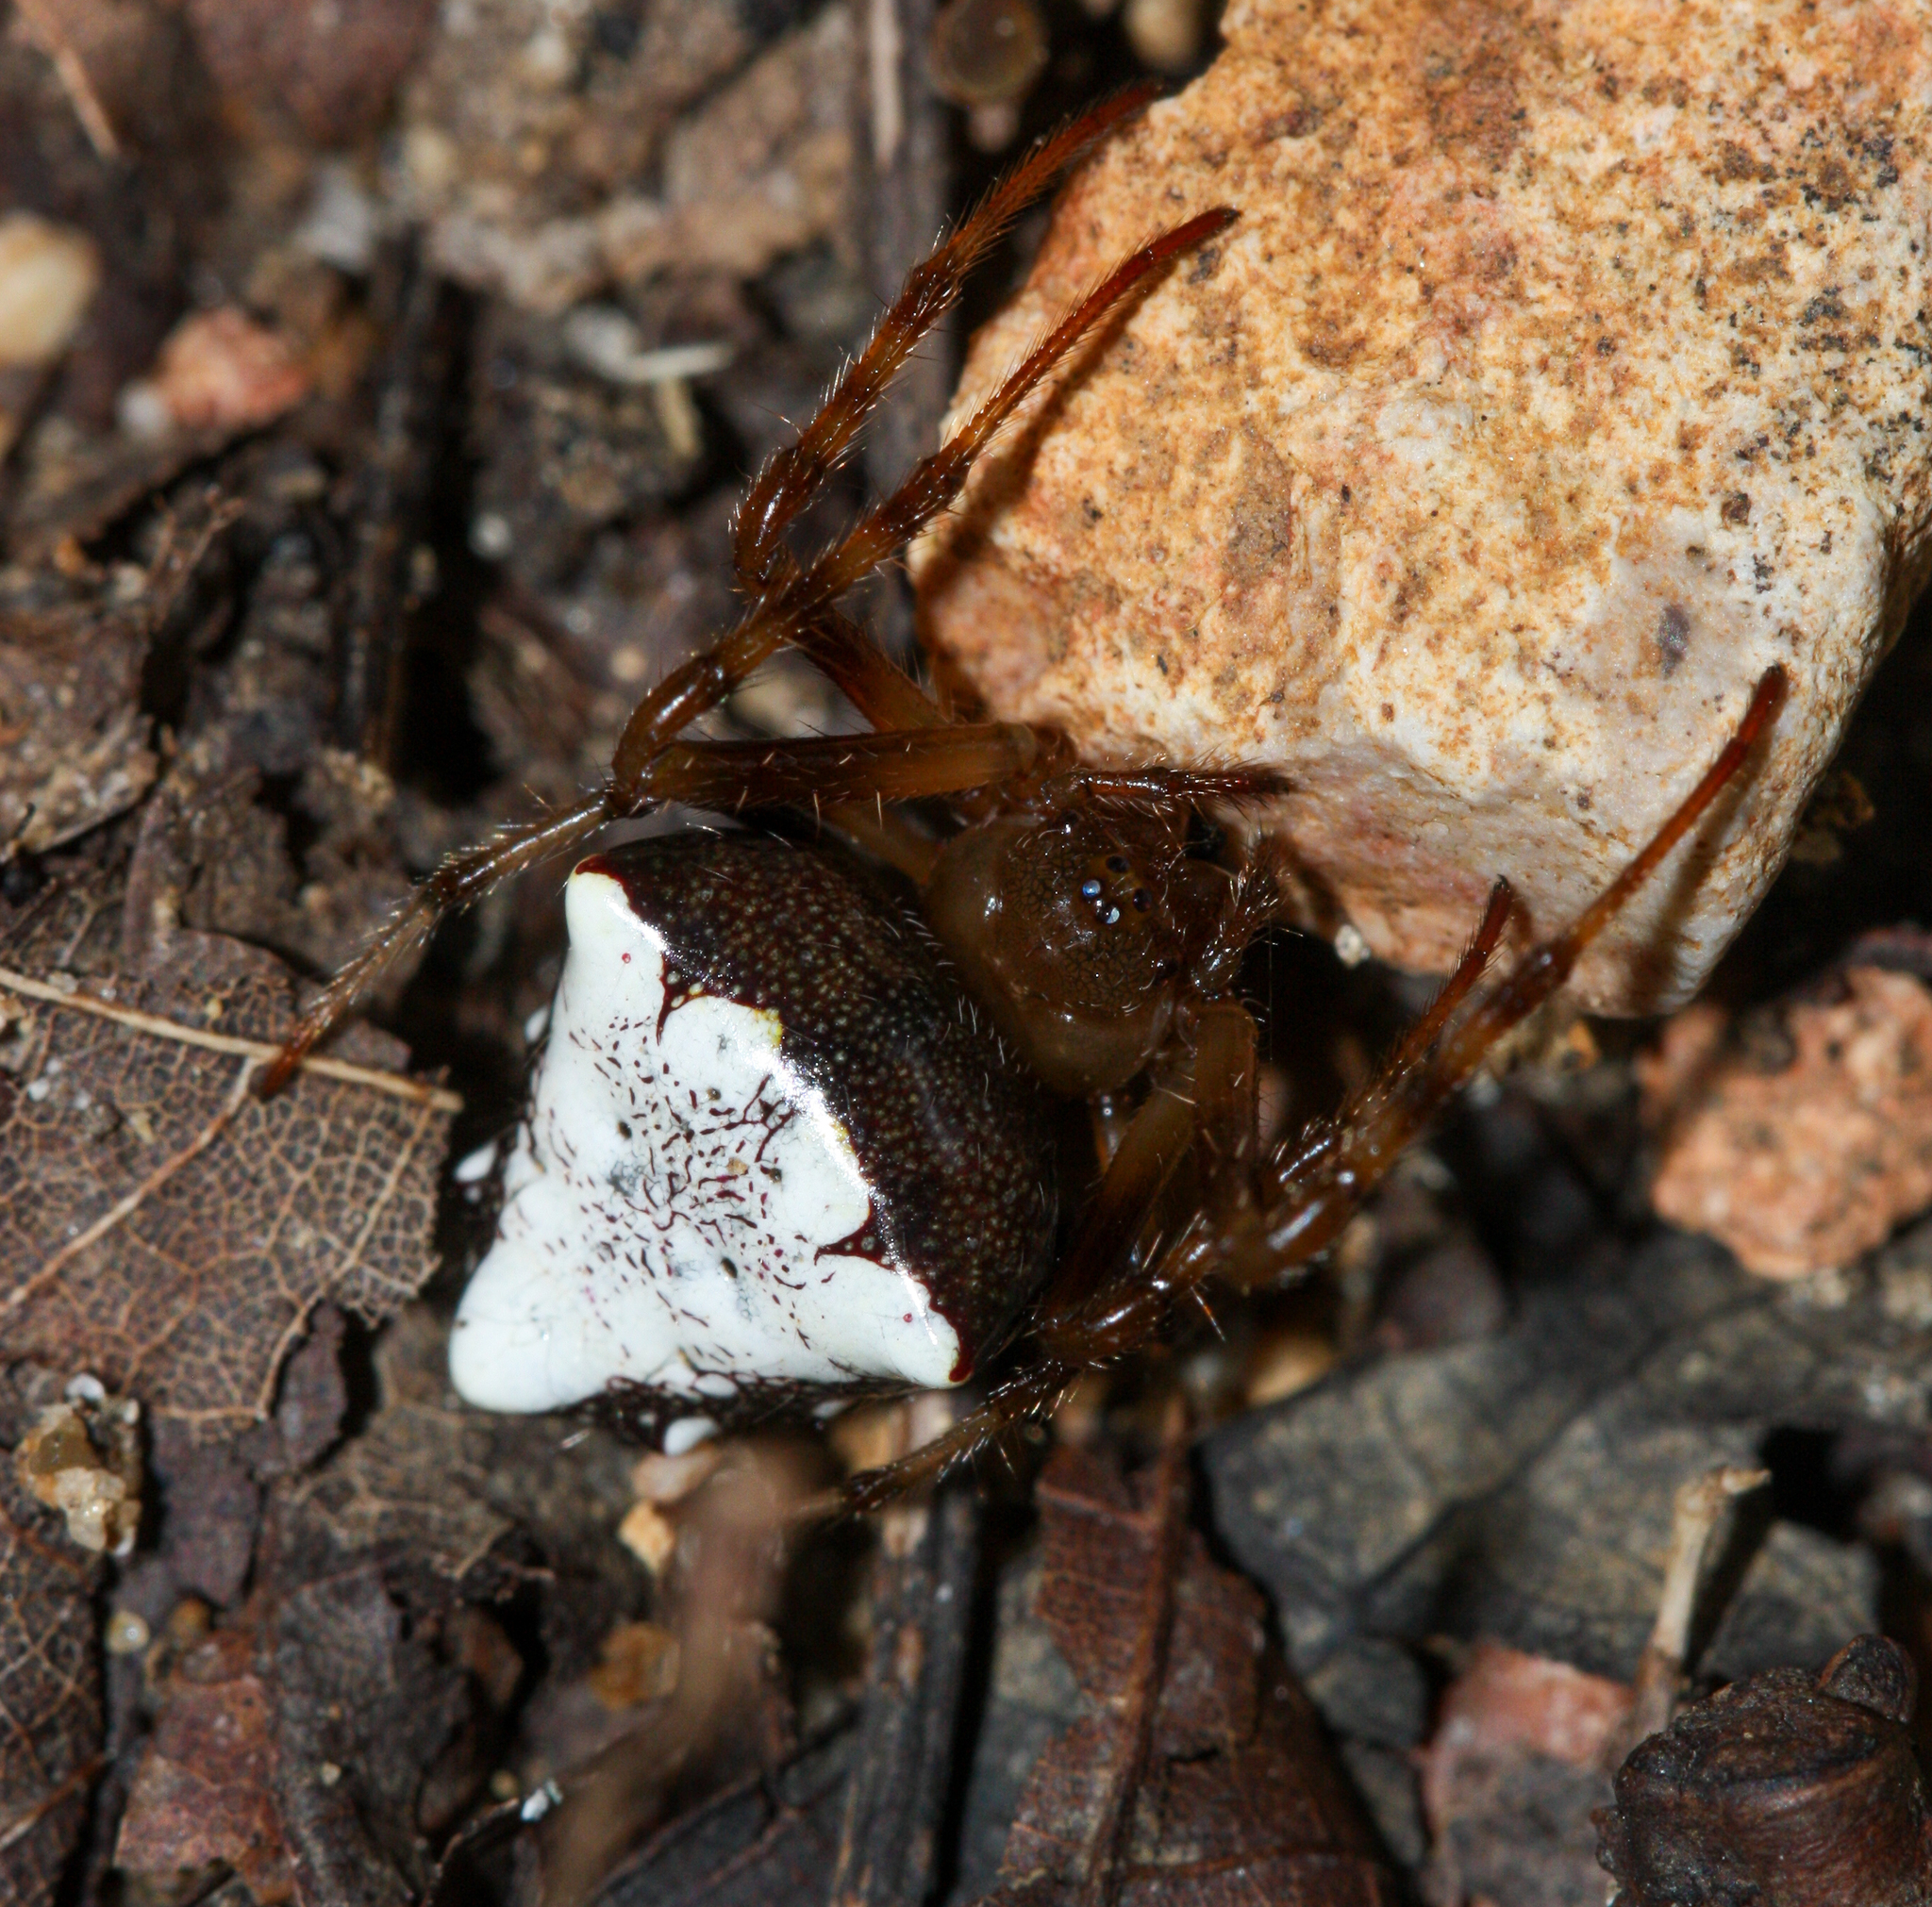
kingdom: Animalia
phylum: Arthropoda
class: Arachnida
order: Araneae
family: Araneidae
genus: Verrucosa
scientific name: Verrucosa arenata
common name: Orb weavers
